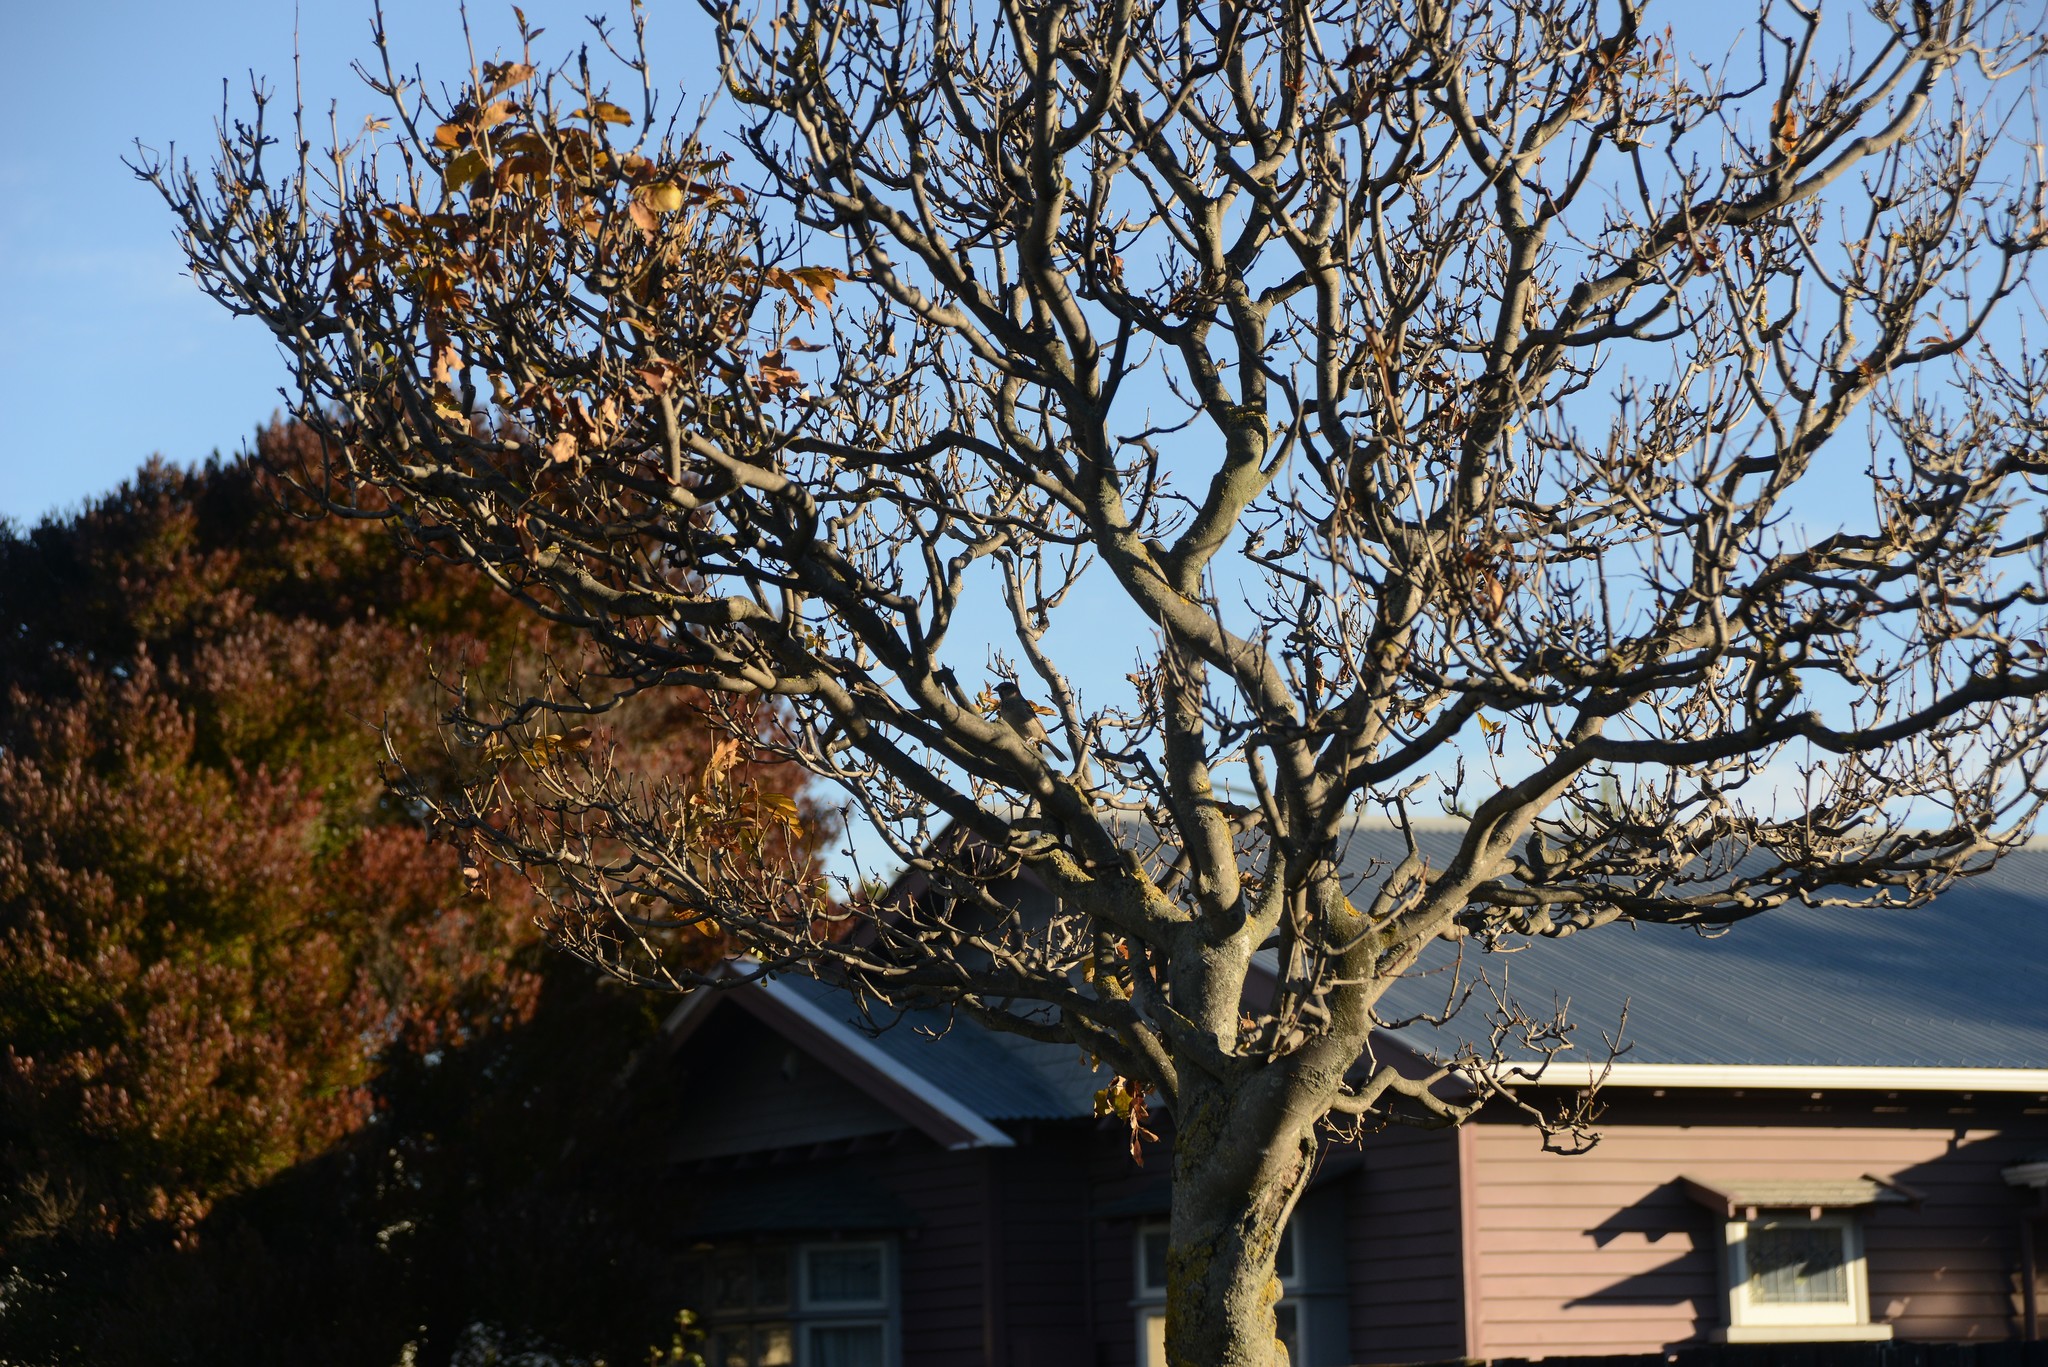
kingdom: Animalia
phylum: Chordata
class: Aves
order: Passeriformes
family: Passeridae
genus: Passer
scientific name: Passer domesticus
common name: House sparrow
